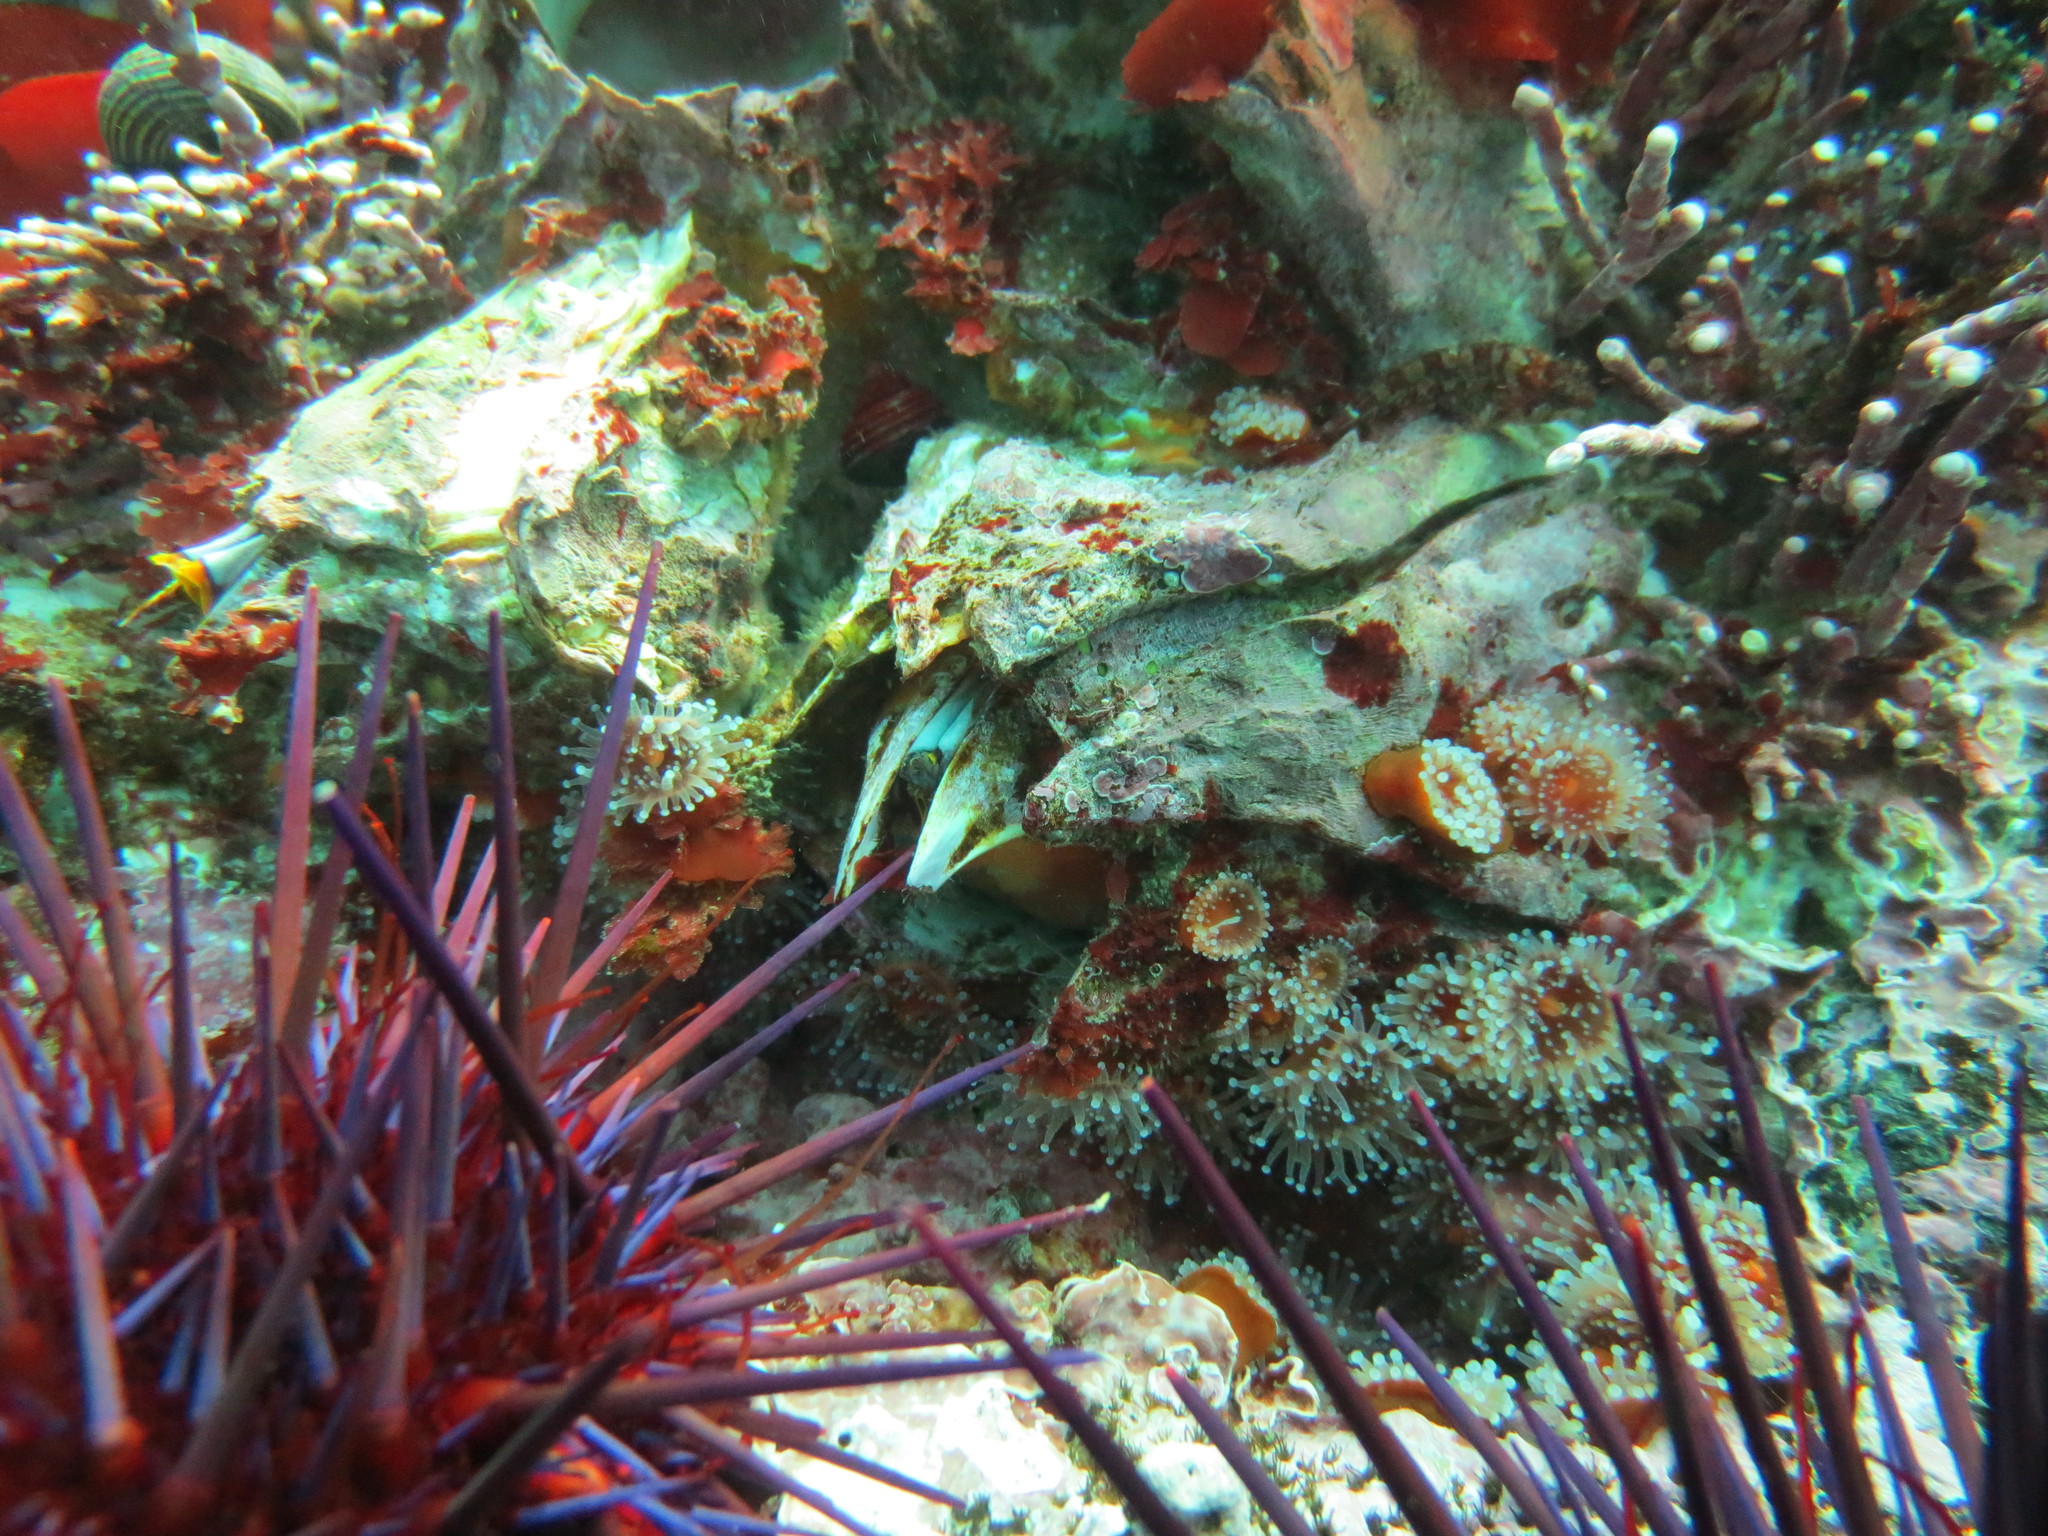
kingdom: Animalia
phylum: Arthropoda
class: Maxillopoda
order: Sessilia
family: Balanidae
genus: Balanus
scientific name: Balanus nubilus
